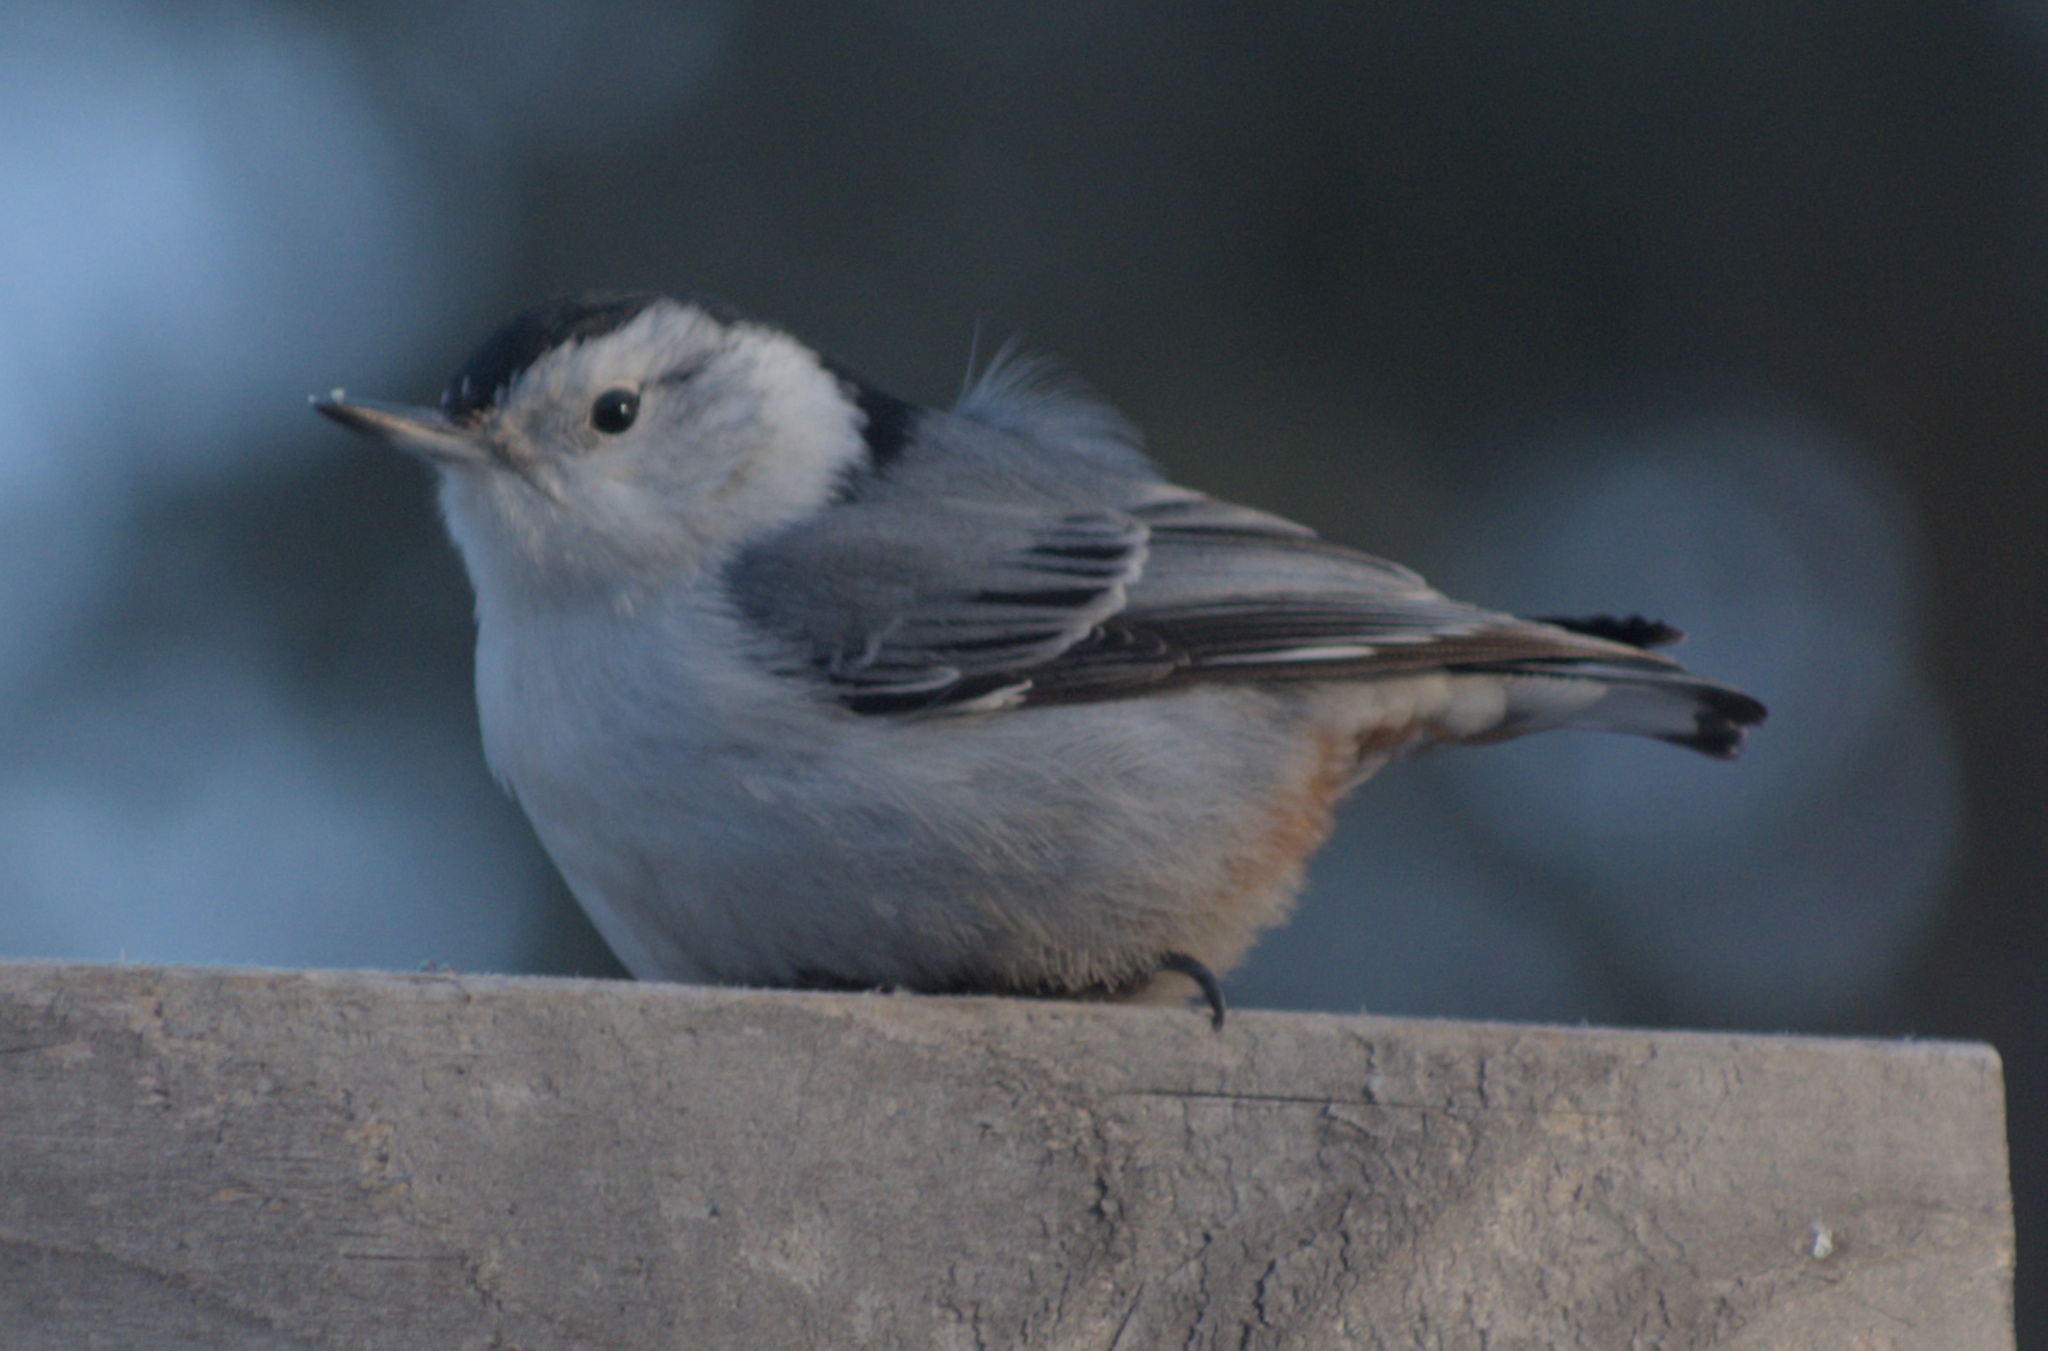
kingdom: Animalia
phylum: Chordata
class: Aves
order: Passeriformes
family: Sittidae
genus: Sitta
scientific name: Sitta carolinensis
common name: White-breasted nuthatch
